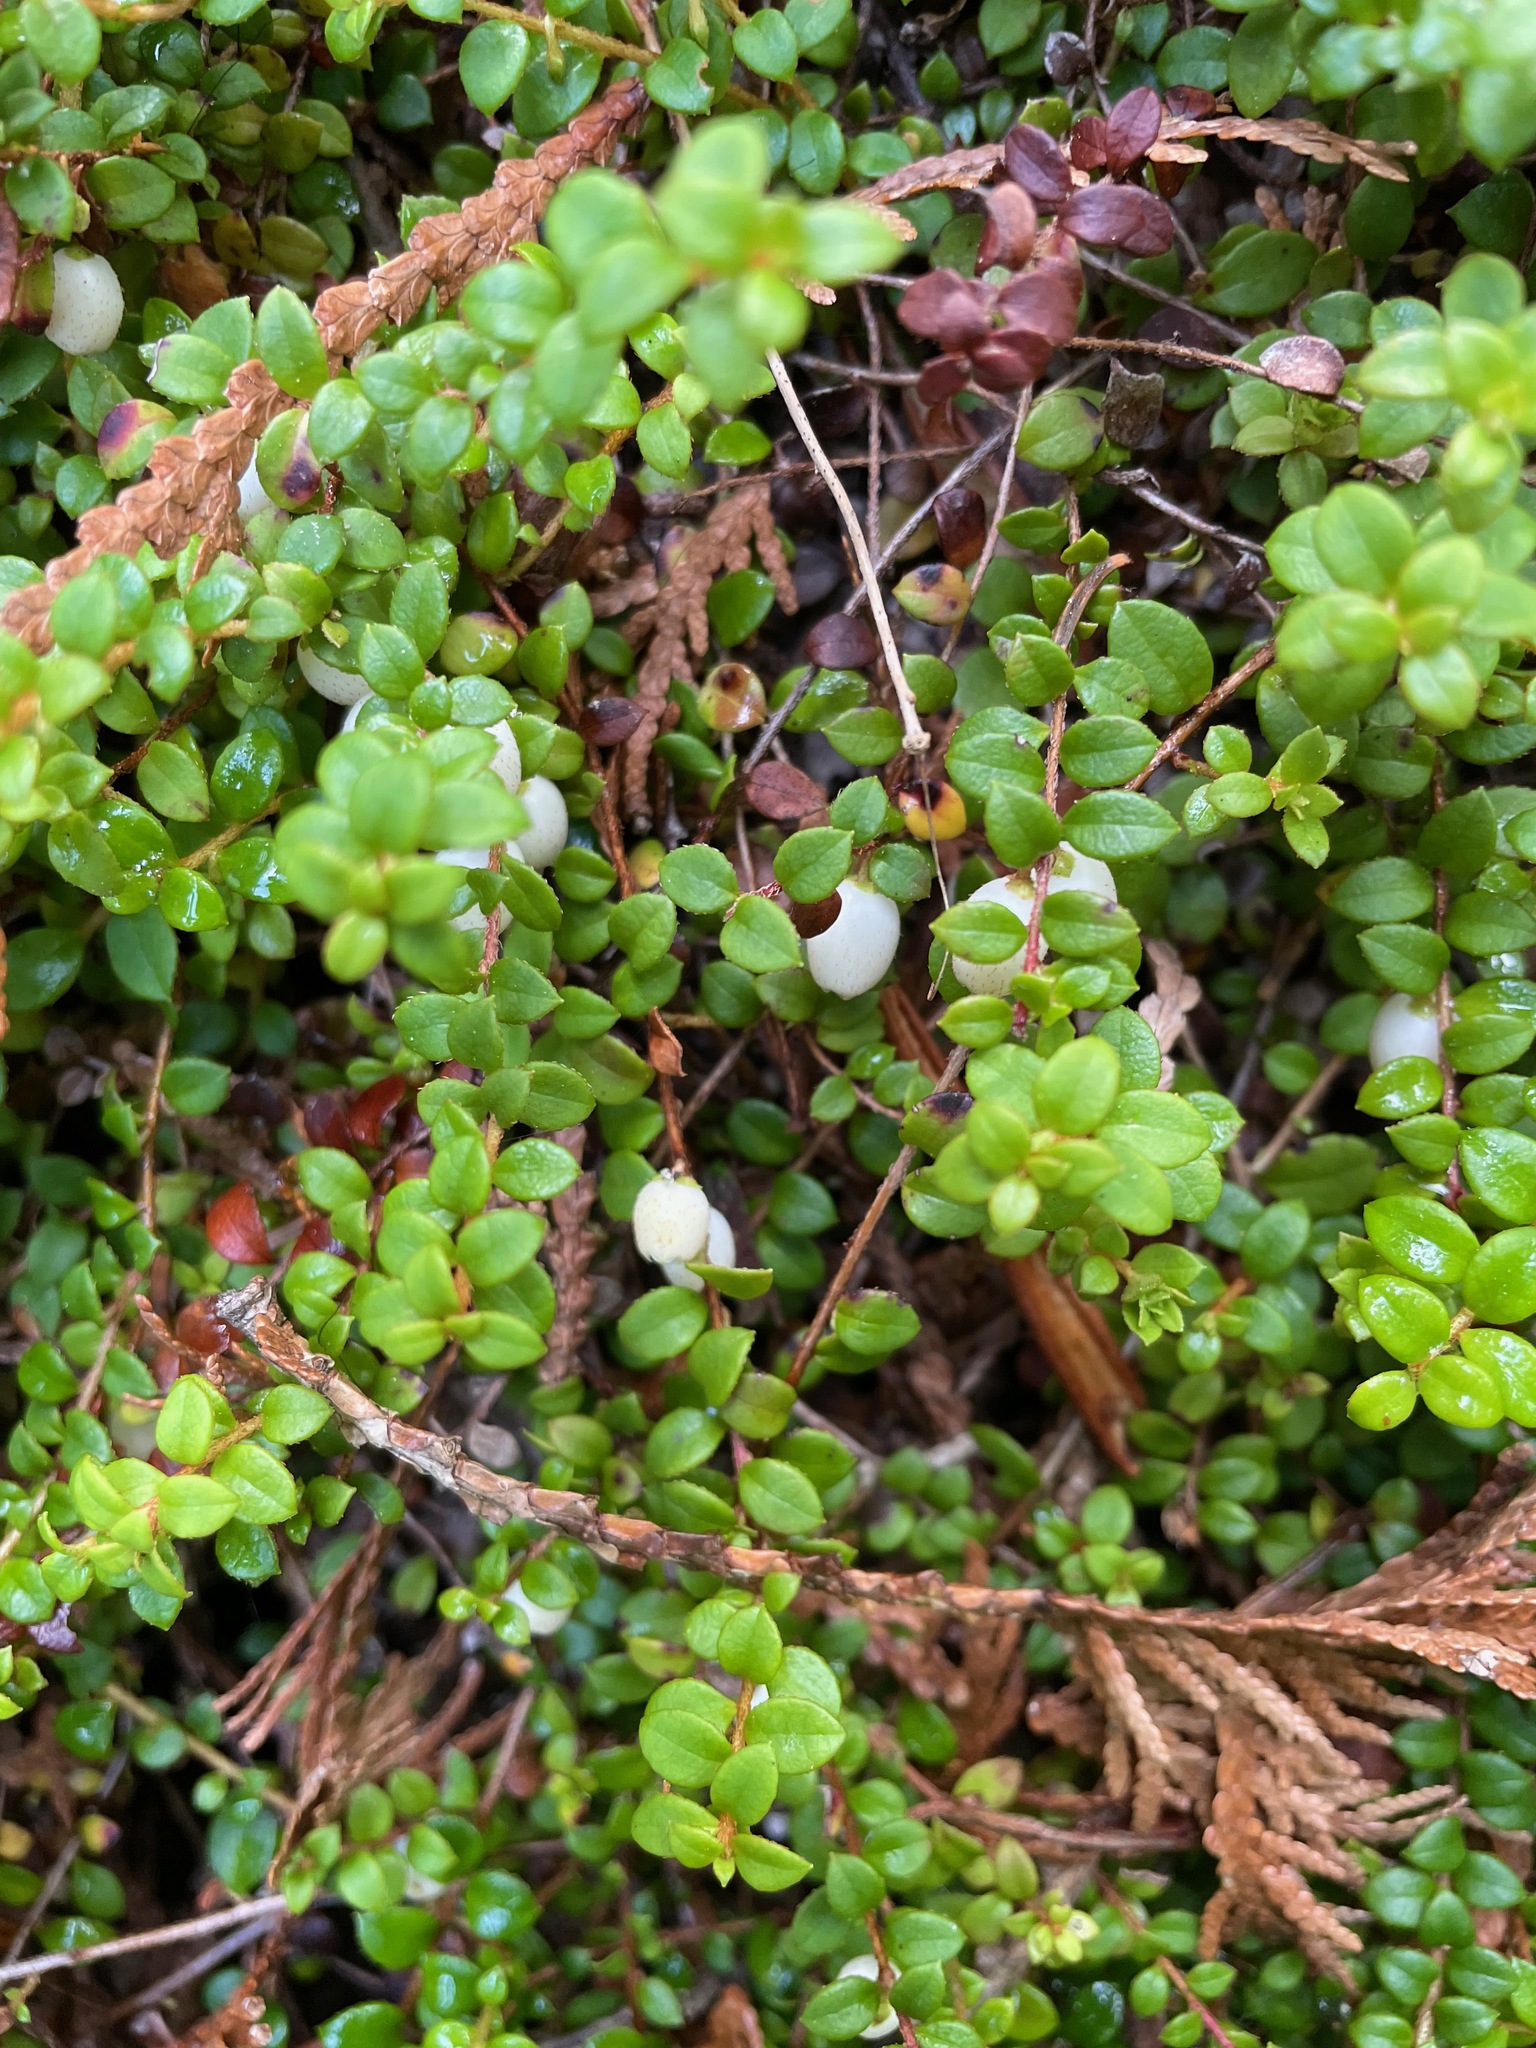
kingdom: Plantae
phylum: Tracheophyta
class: Magnoliopsida
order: Ericales
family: Ericaceae
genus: Gaultheria
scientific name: Gaultheria hispidula
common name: Cancer wintergreen
